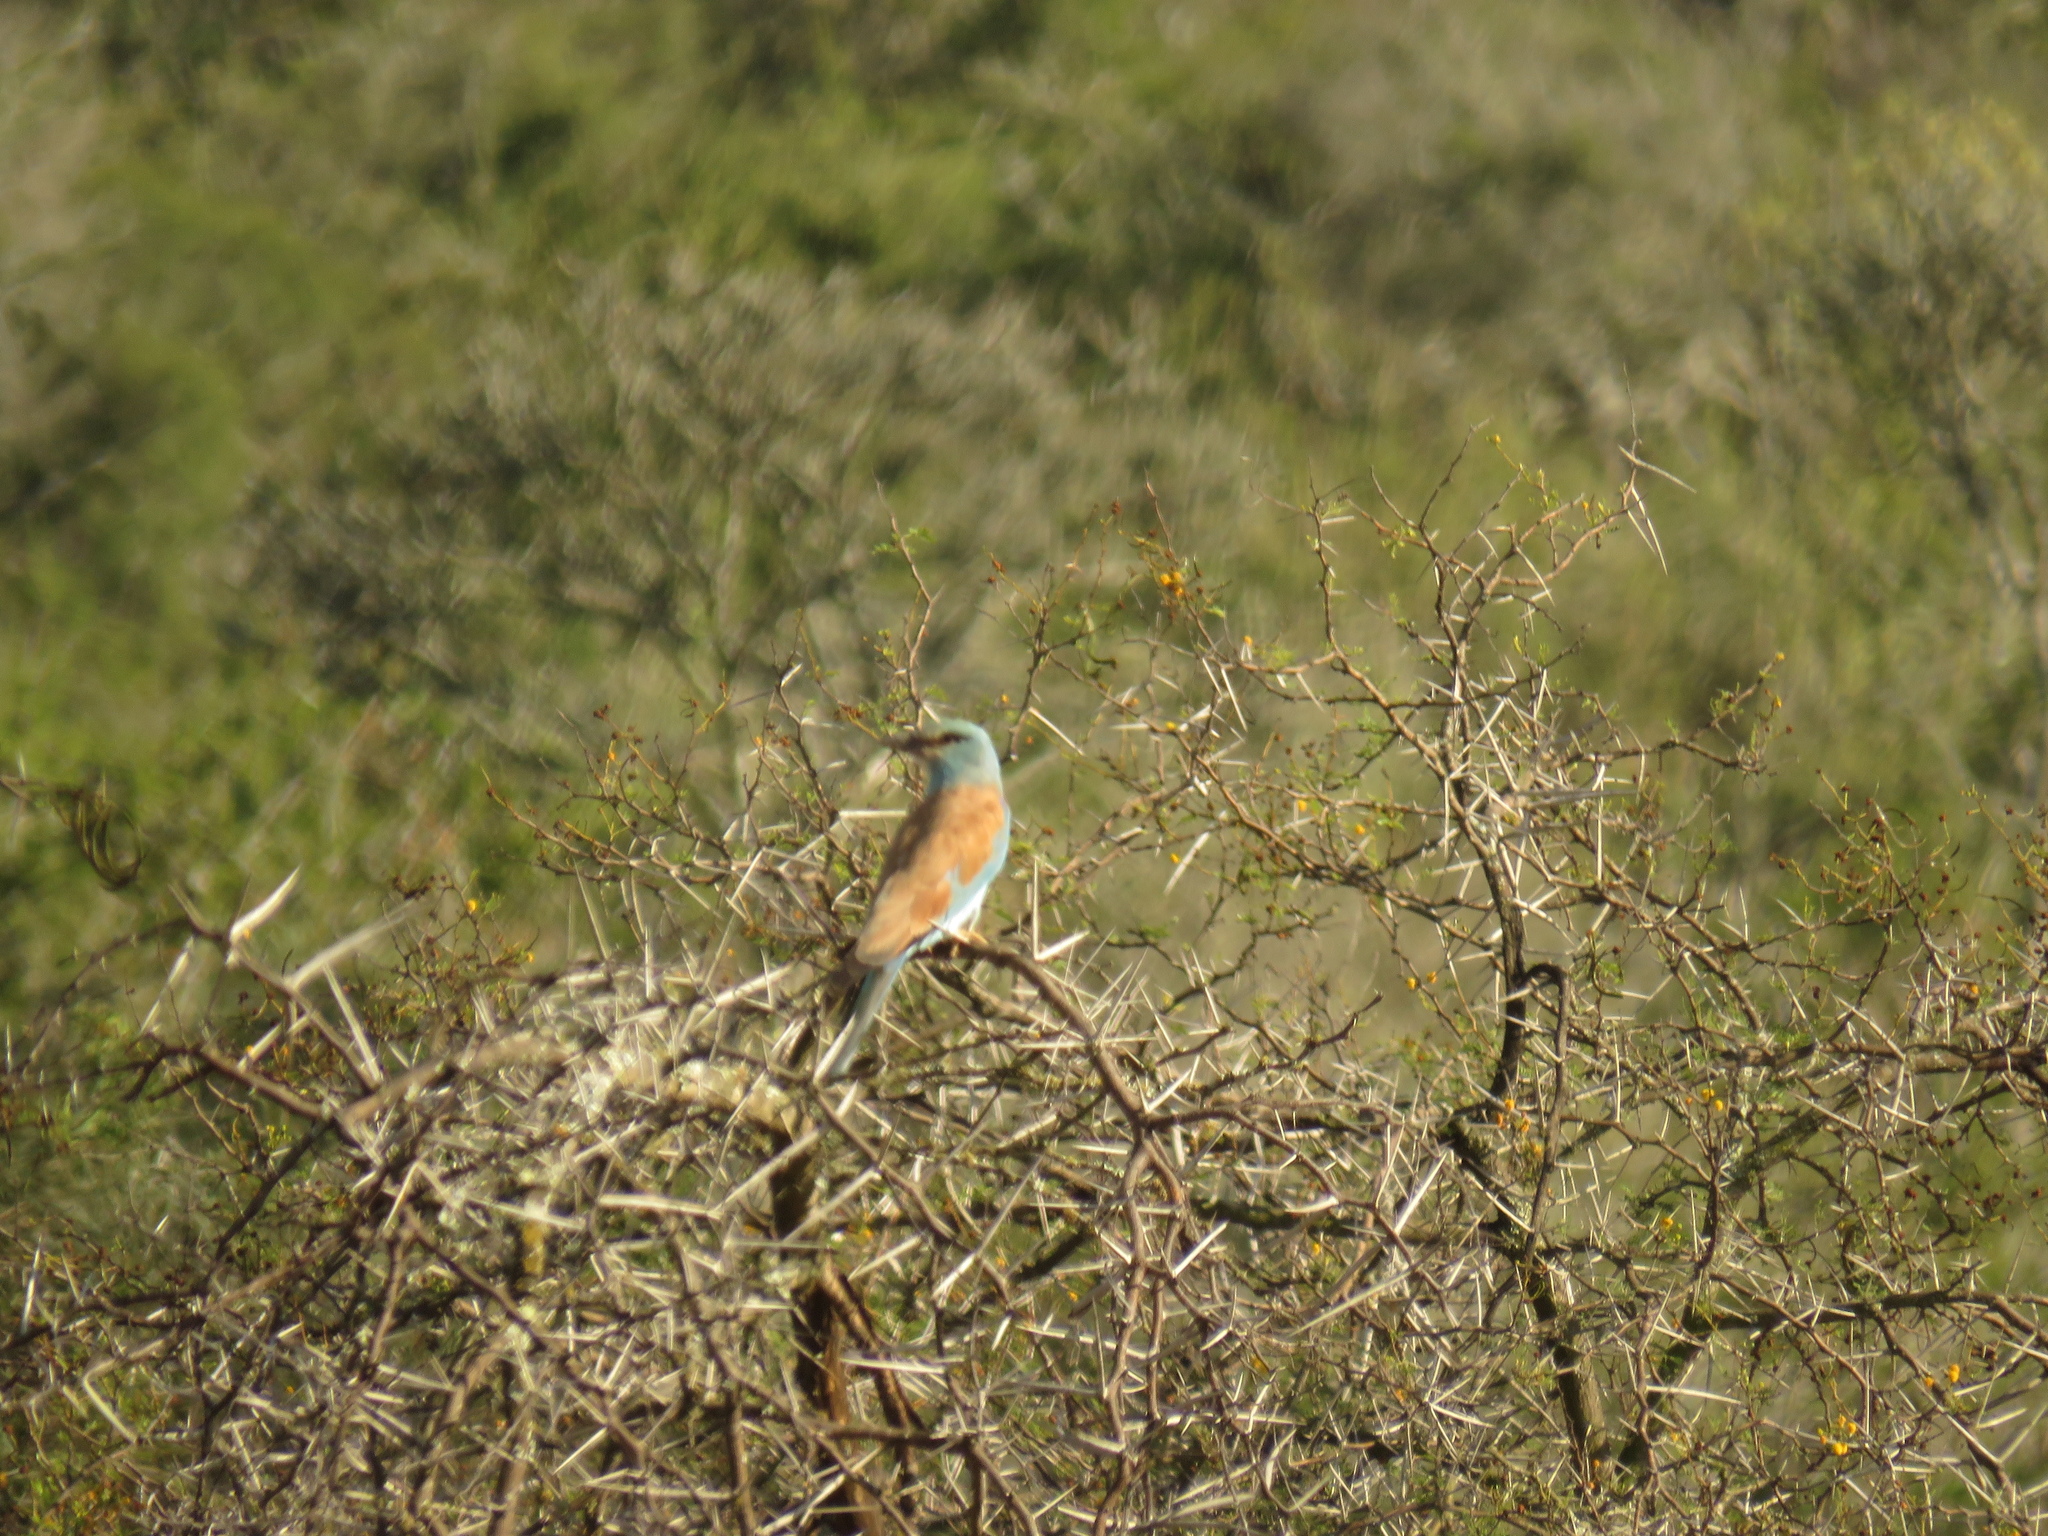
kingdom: Animalia
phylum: Chordata
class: Aves
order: Coraciiformes
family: Coraciidae
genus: Coracias
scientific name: Coracias garrulus
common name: European roller
